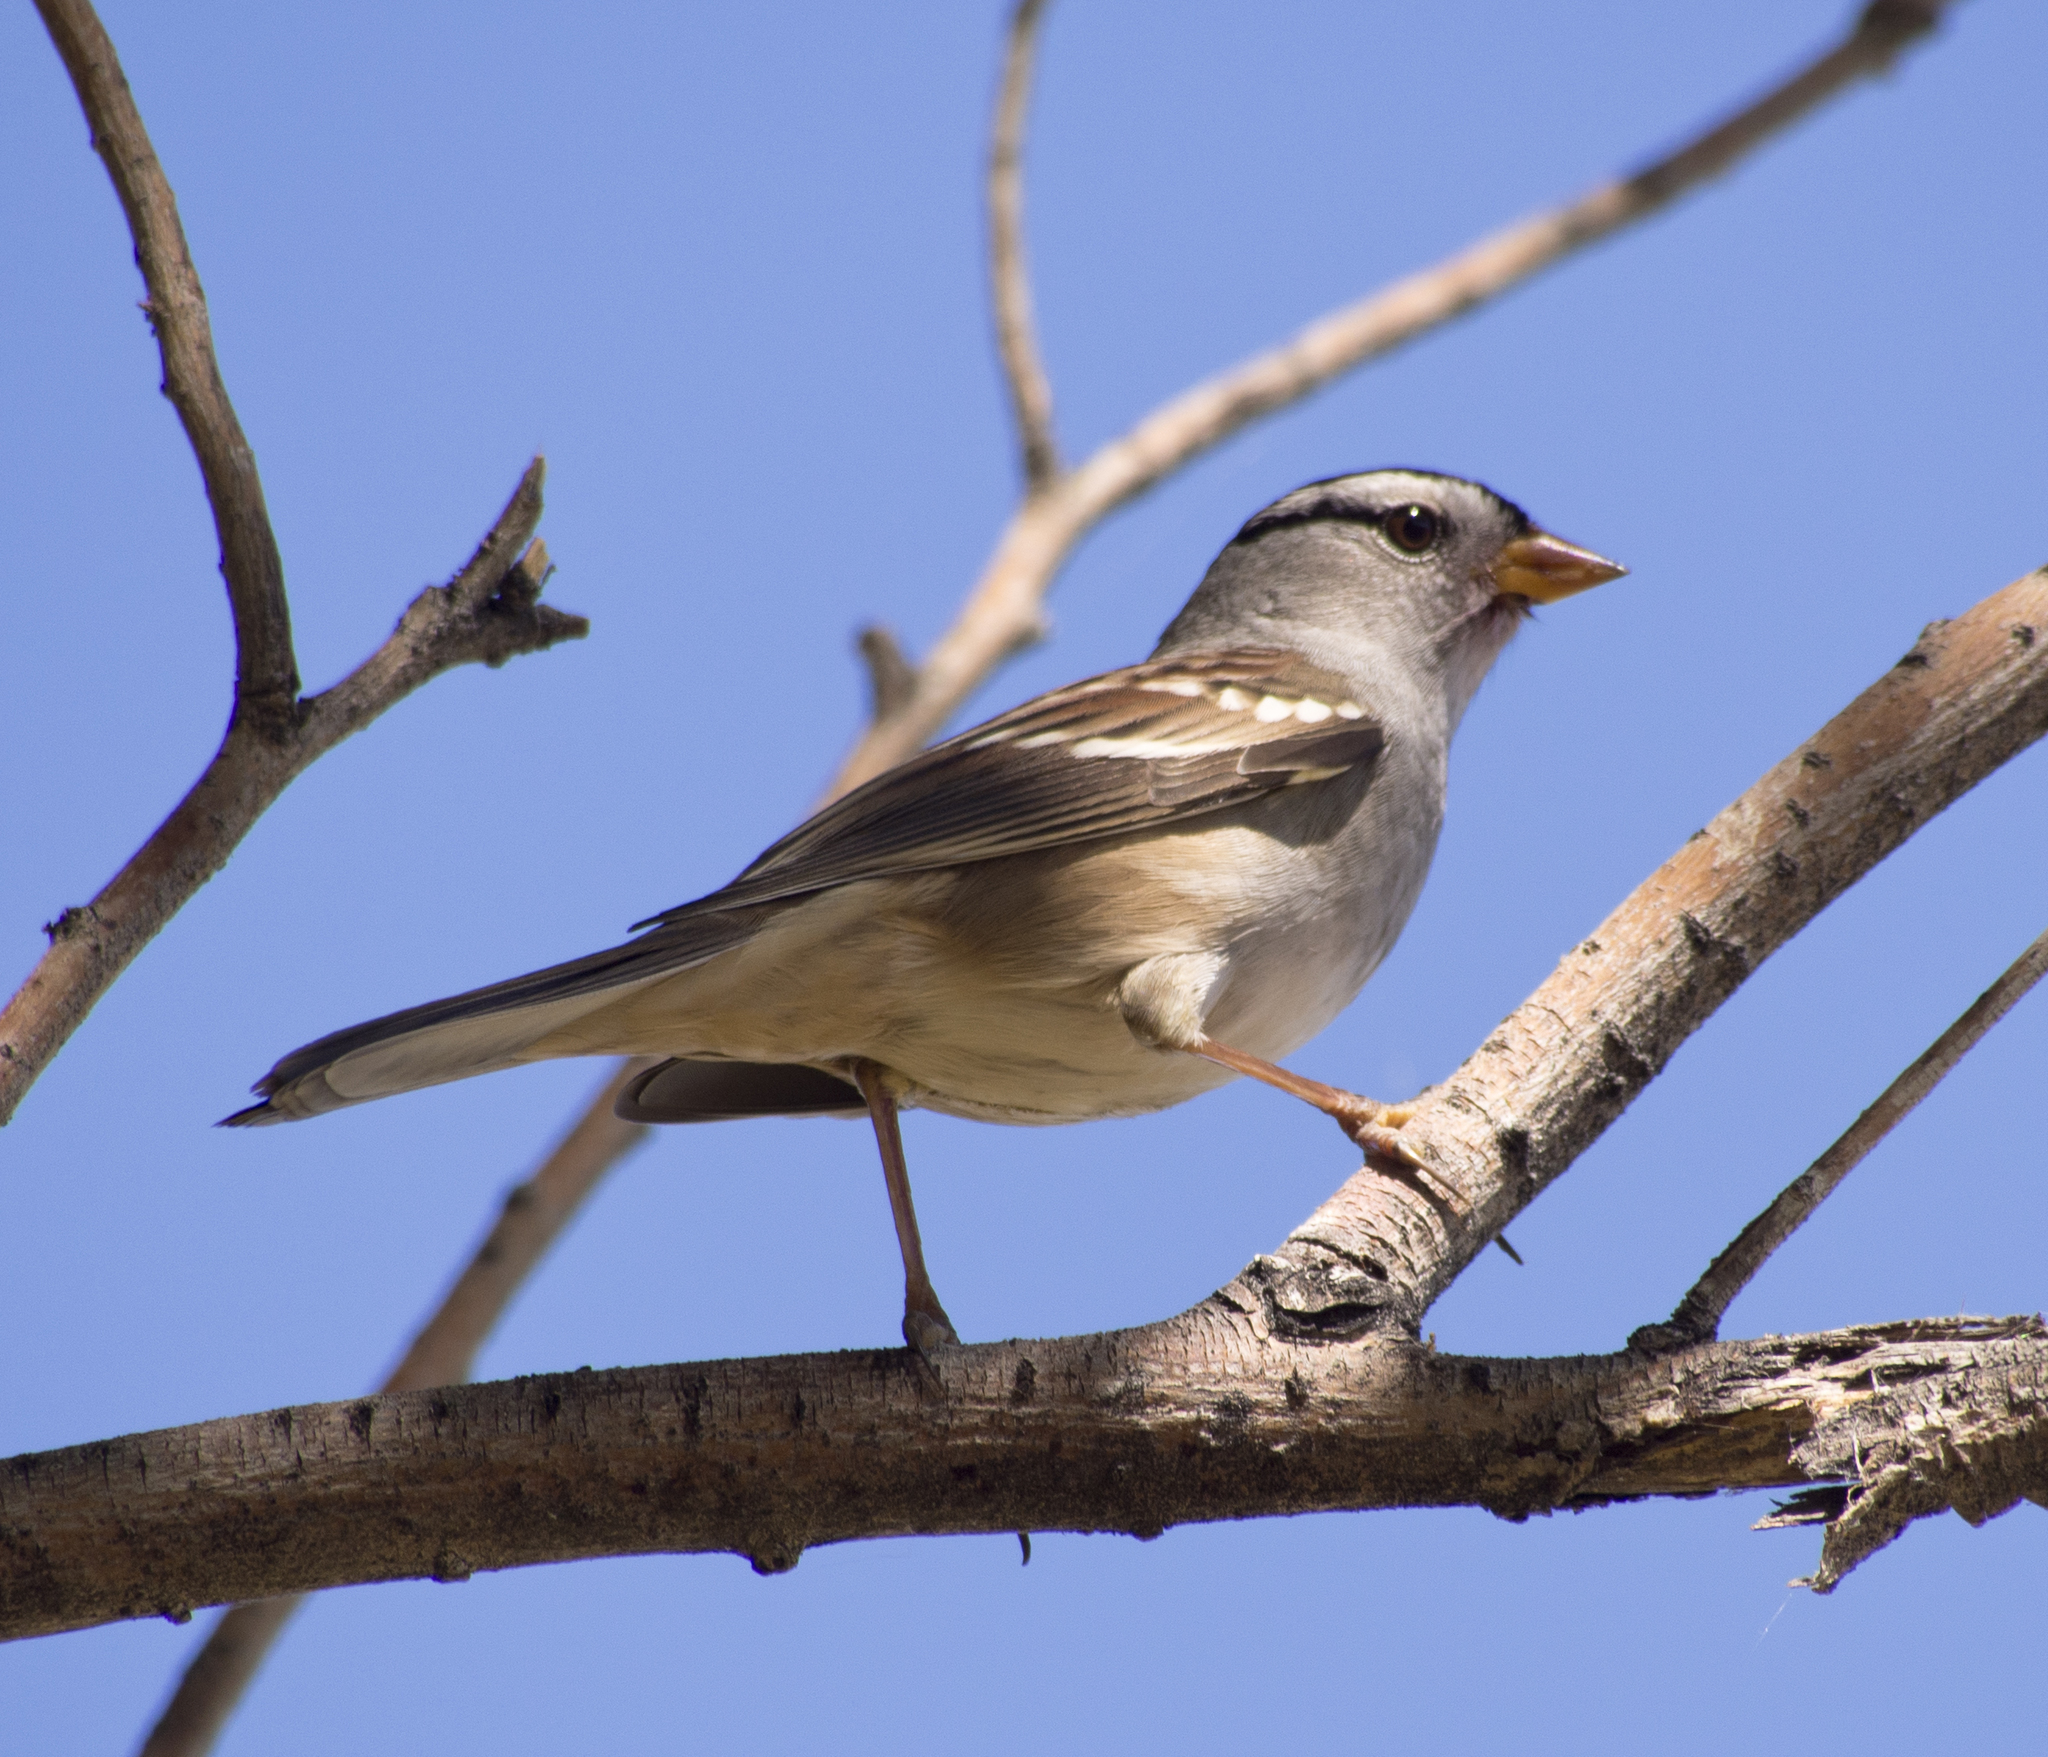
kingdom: Animalia
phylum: Chordata
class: Aves
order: Passeriformes
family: Passerellidae
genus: Zonotrichia
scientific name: Zonotrichia leucophrys
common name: White-crowned sparrow
